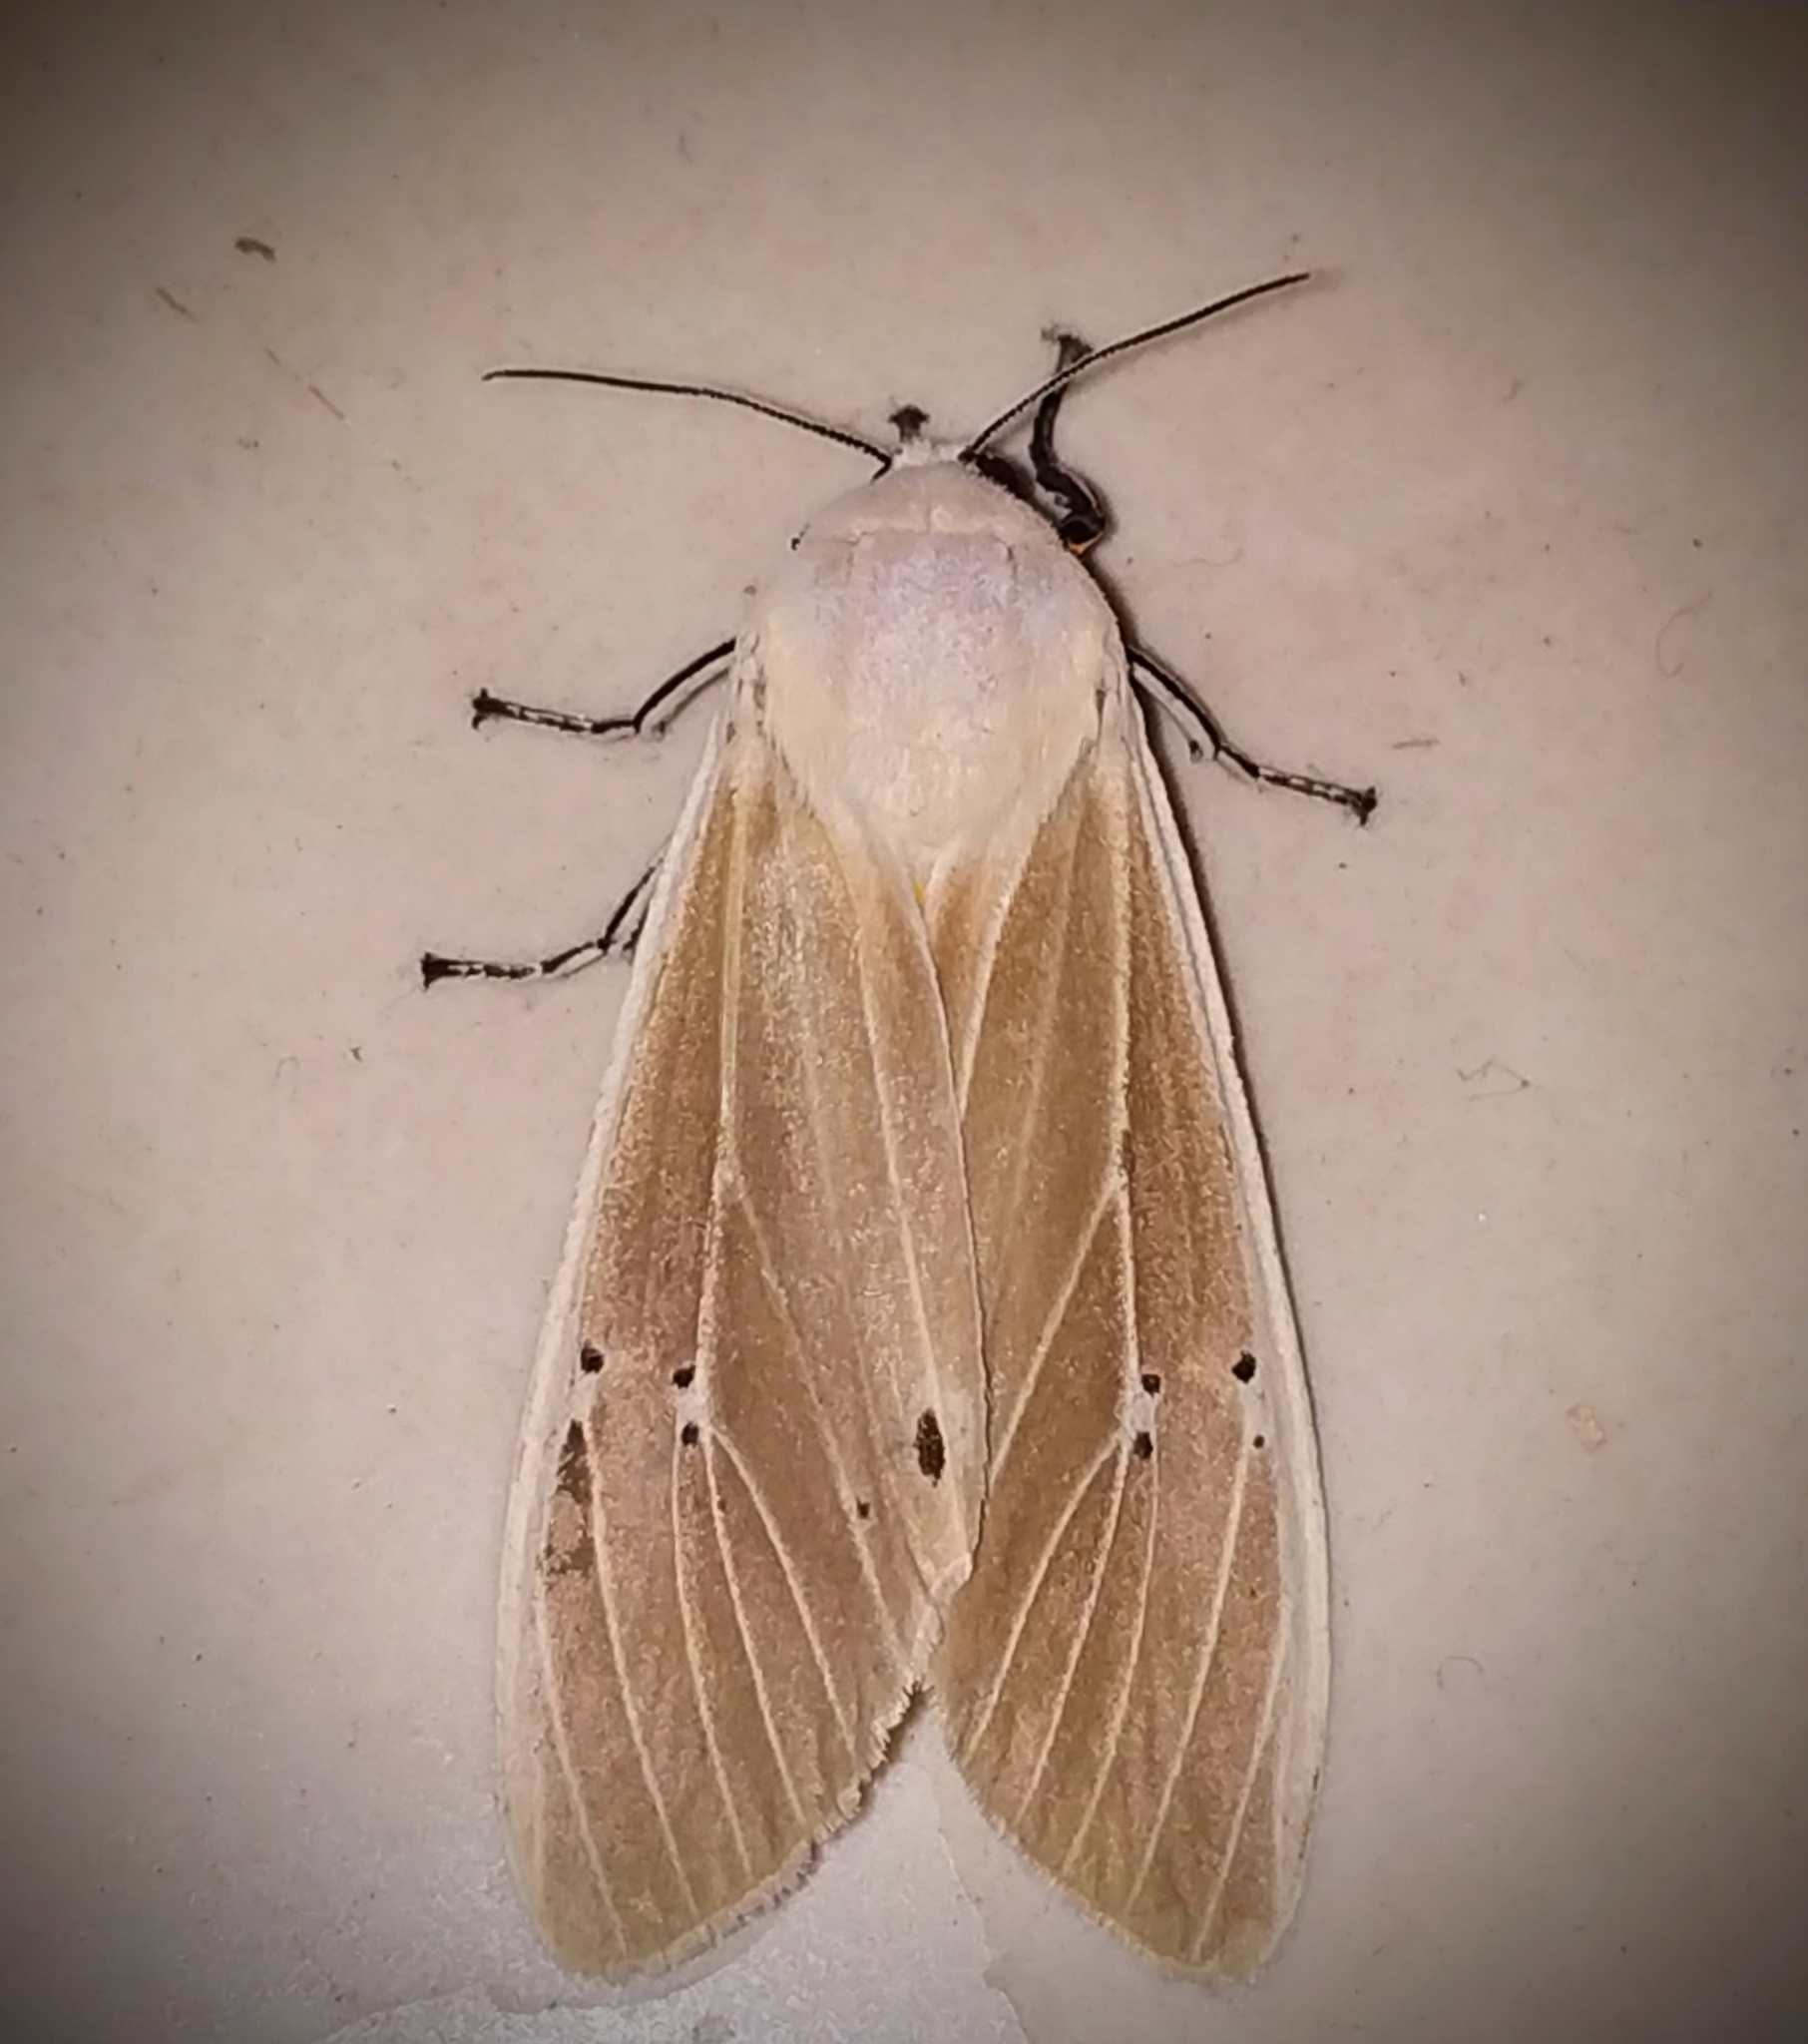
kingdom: Animalia
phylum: Arthropoda
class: Insecta
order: Lepidoptera
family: Erebidae
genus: Creatonotos
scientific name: Creatonotos transiens
